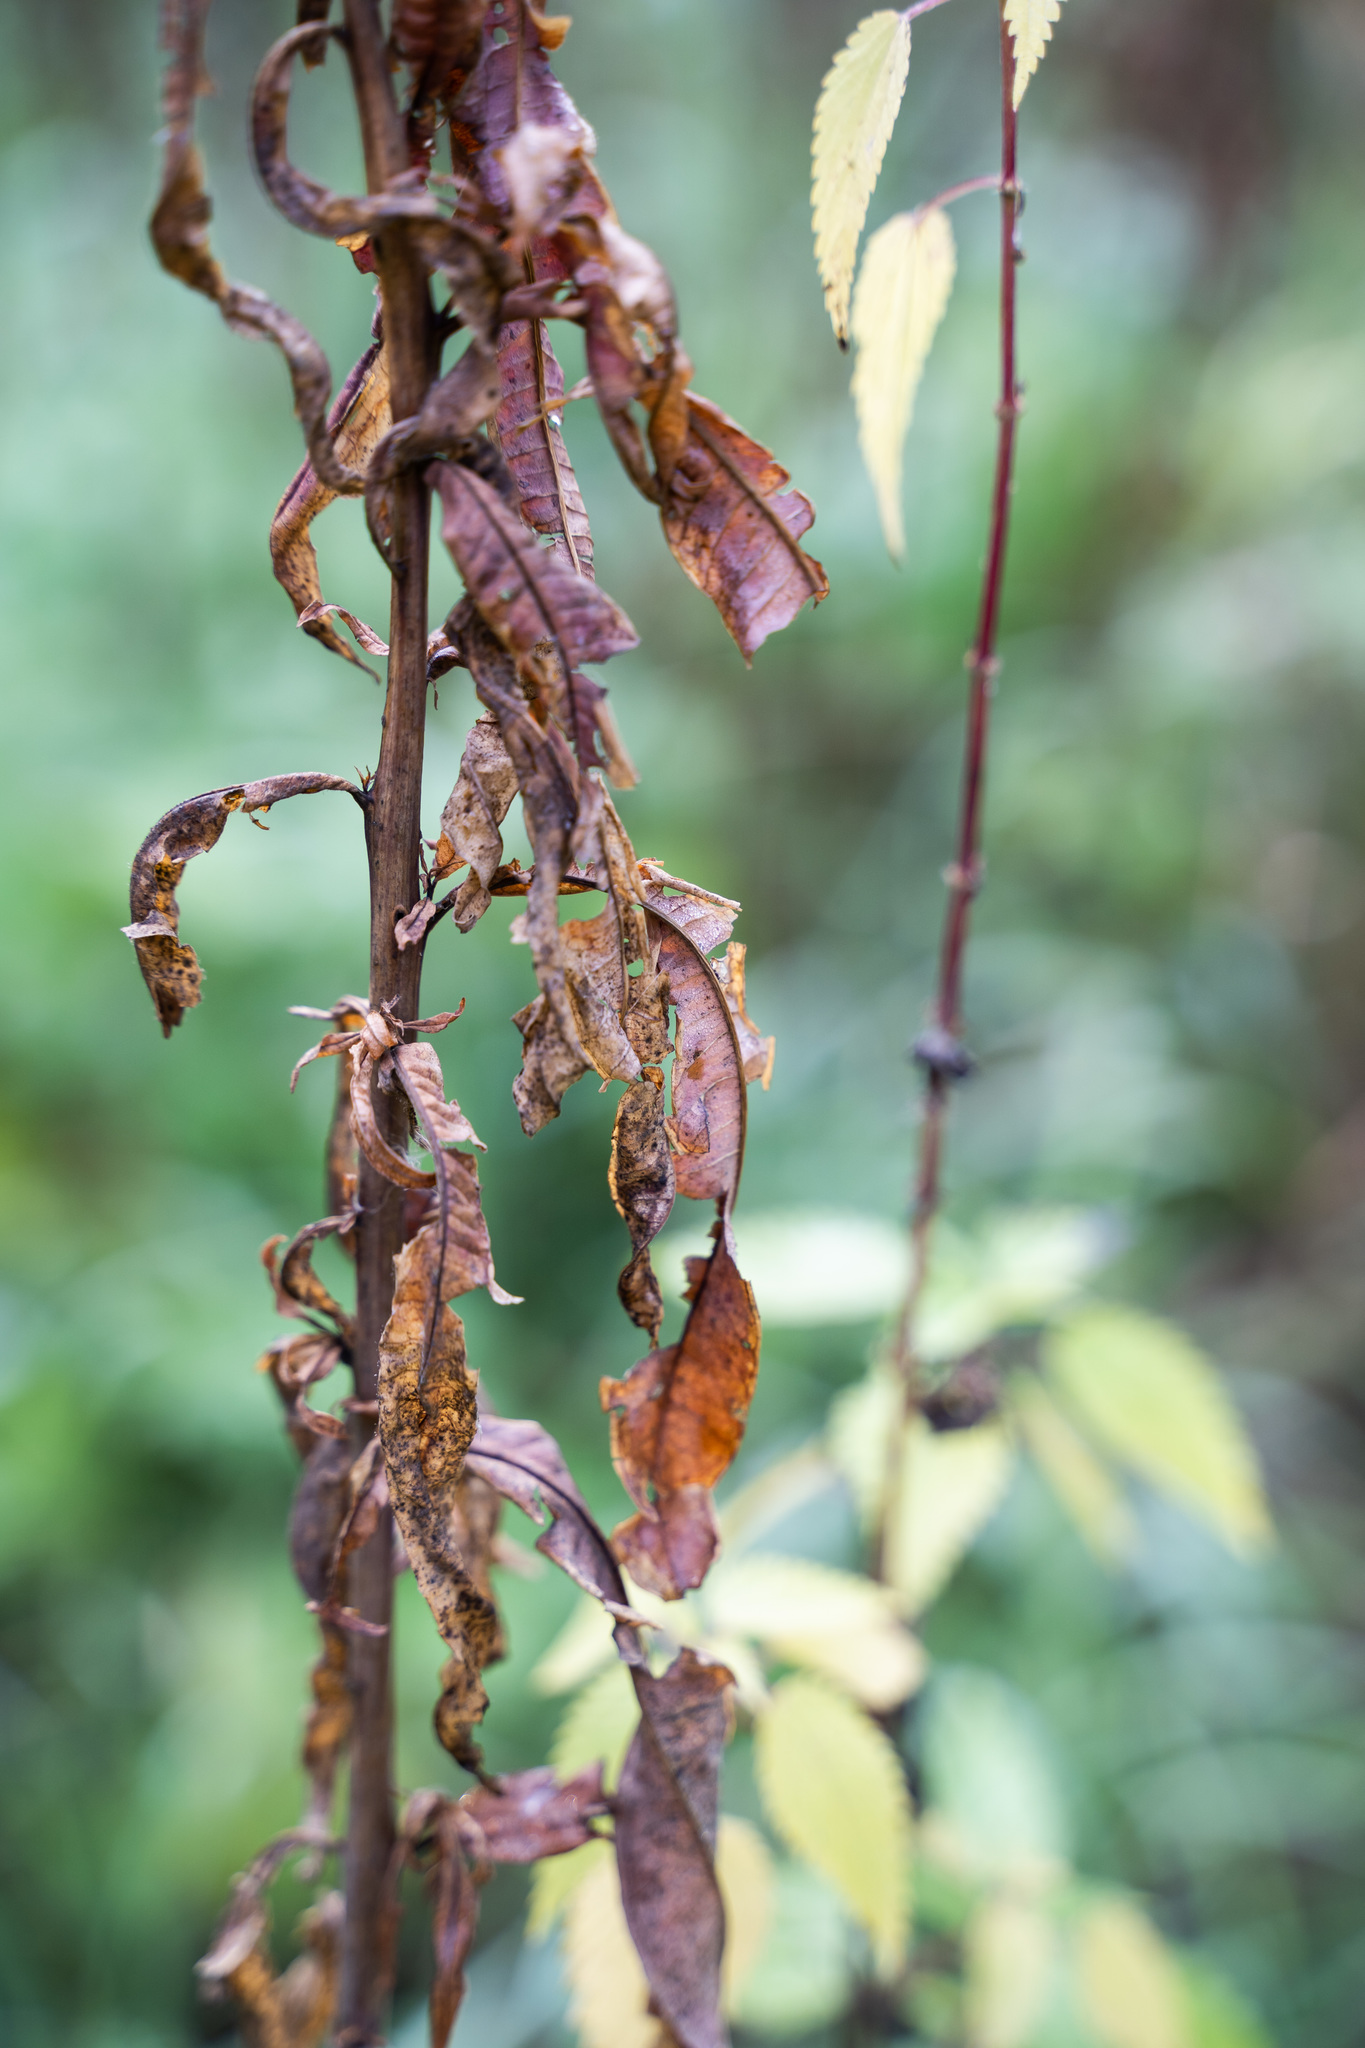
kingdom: Plantae
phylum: Tracheophyta
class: Magnoliopsida
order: Myrtales
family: Onagraceae
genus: Chamaenerion
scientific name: Chamaenerion angustifolium
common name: Fireweed
